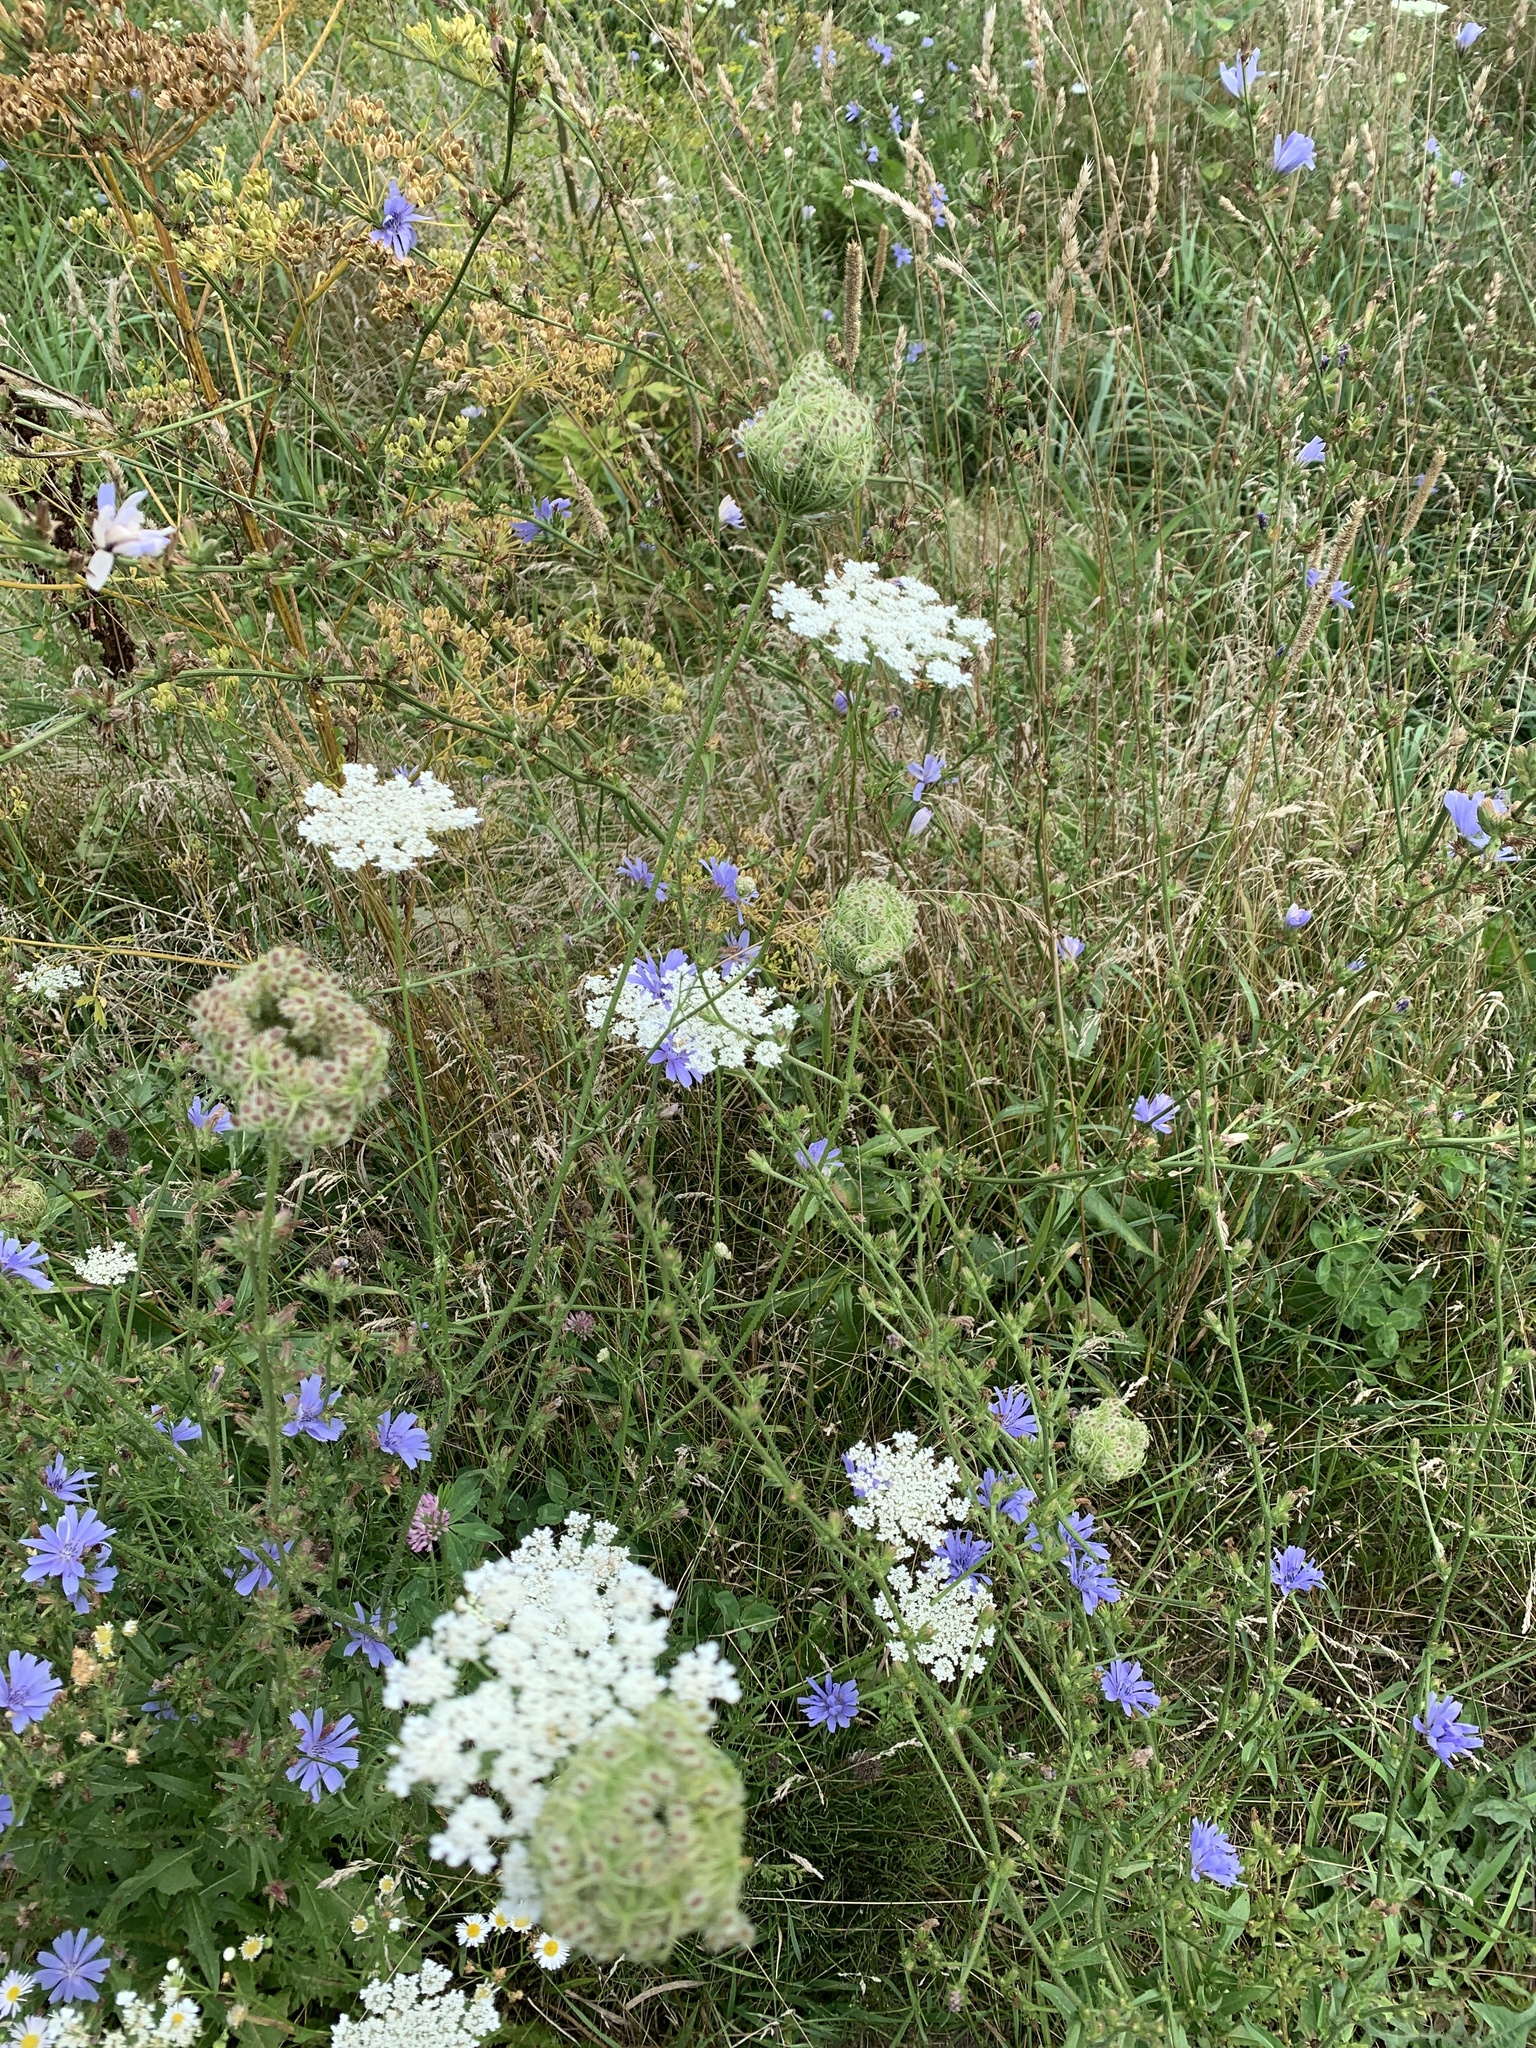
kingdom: Plantae
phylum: Tracheophyta
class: Magnoliopsida
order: Apiales
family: Apiaceae
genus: Daucus
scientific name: Daucus carota
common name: Wild carrot
